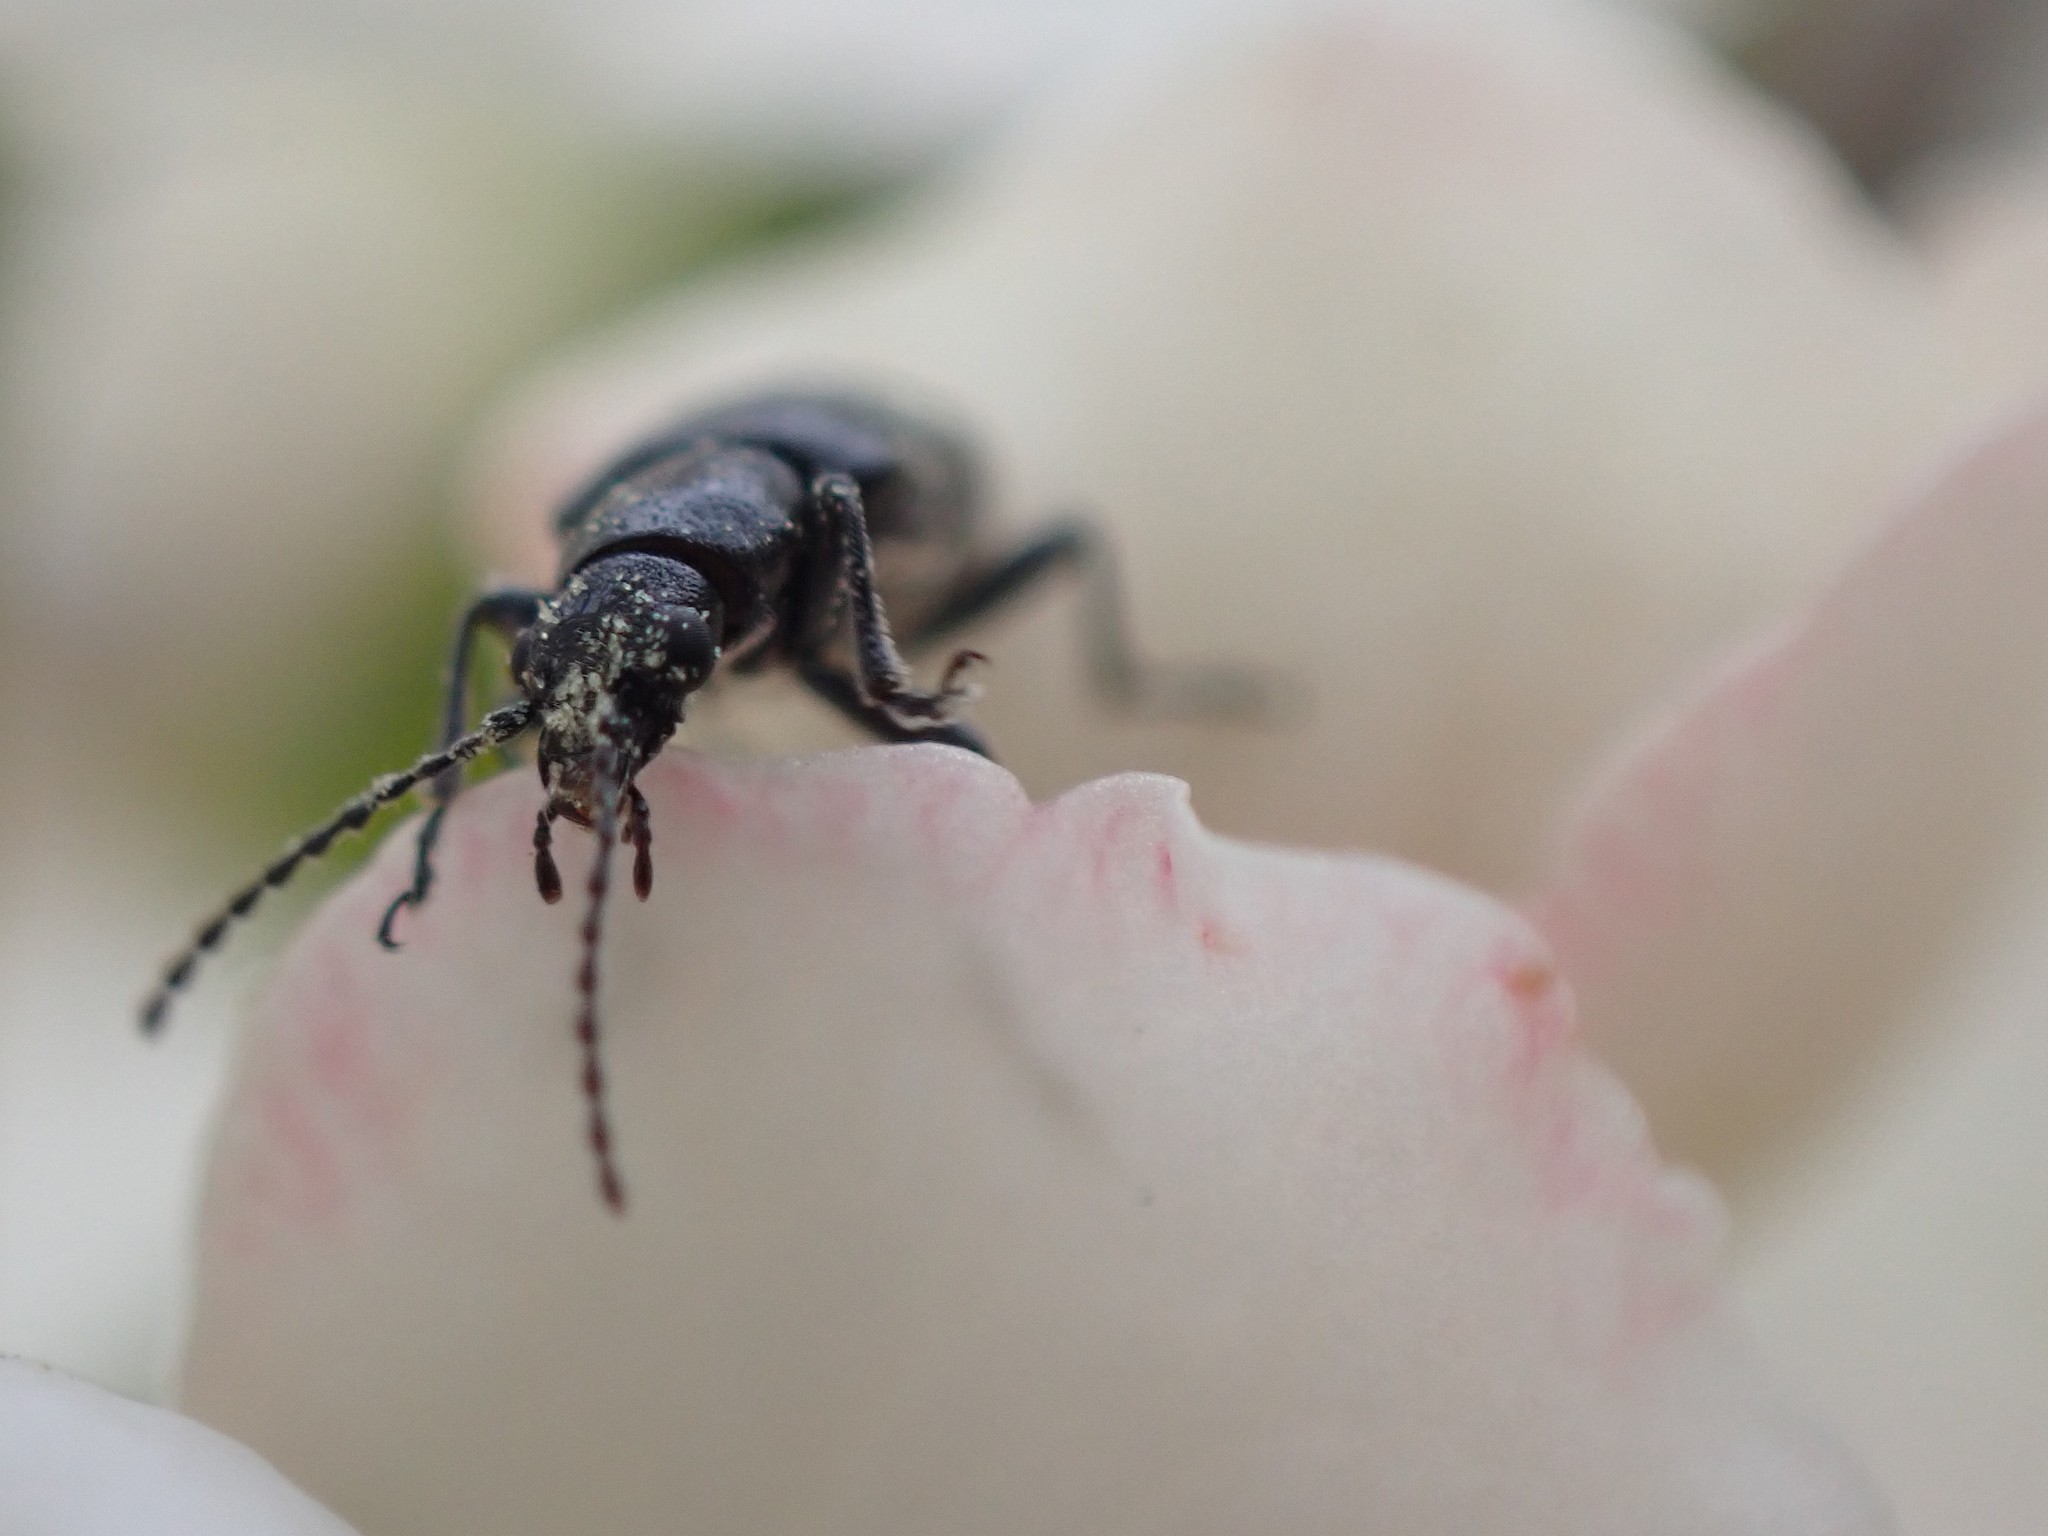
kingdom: Animalia
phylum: Arthropoda
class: Insecta
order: Coleoptera
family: Orsodacnidae
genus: Orsodacne
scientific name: Orsodacne atra
